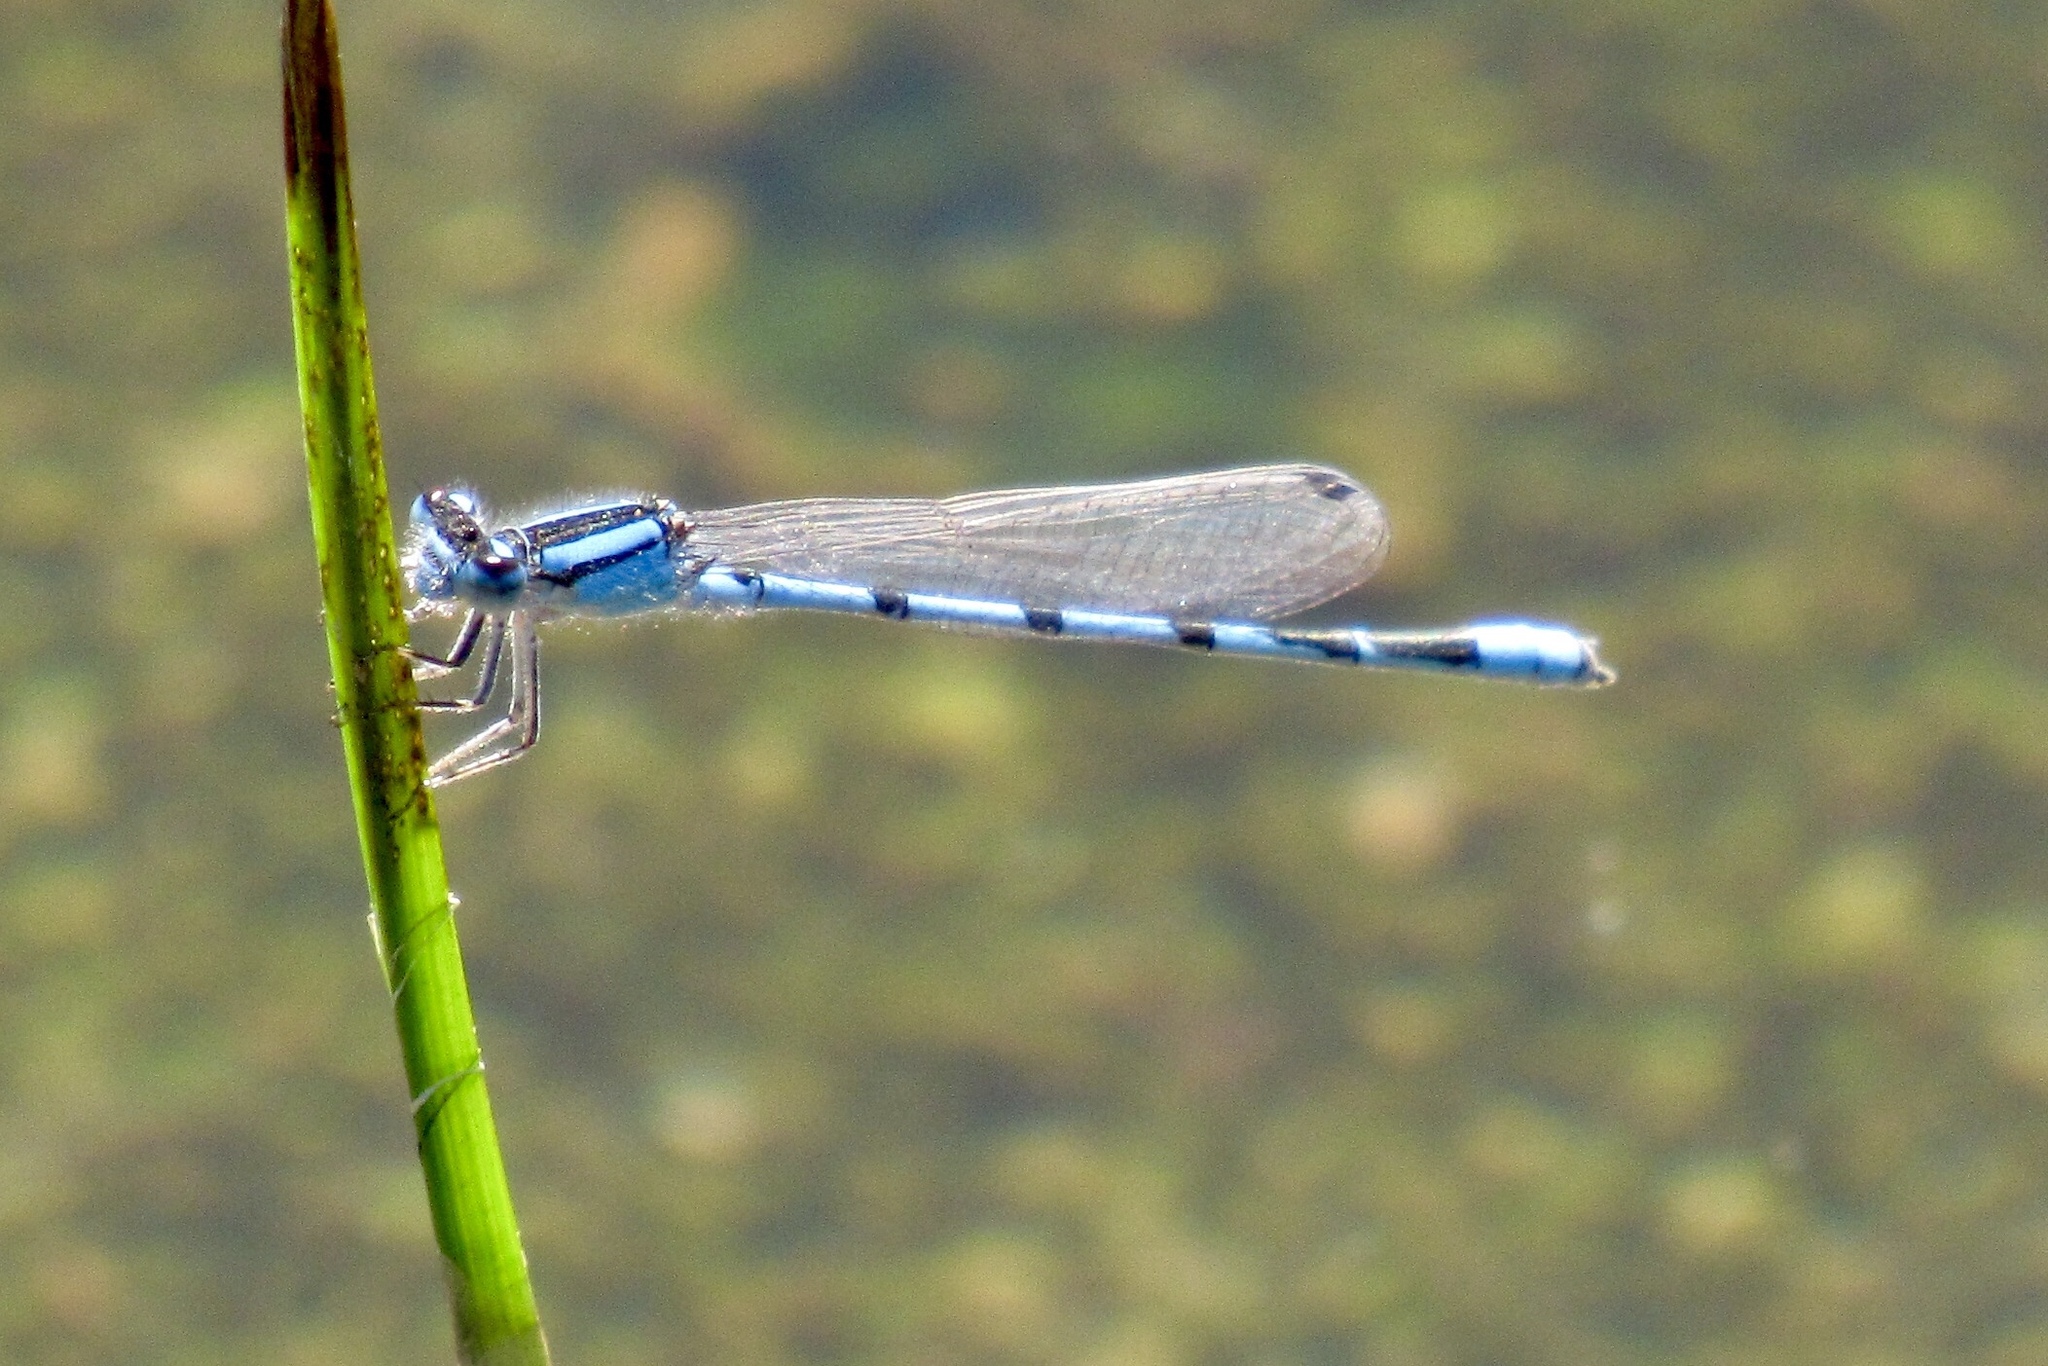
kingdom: Animalia
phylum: Arthropoda
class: Insecta
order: Odonata
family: Coenagrionidae
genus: Enallagma
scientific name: Enallagma civile
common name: Damselfly
